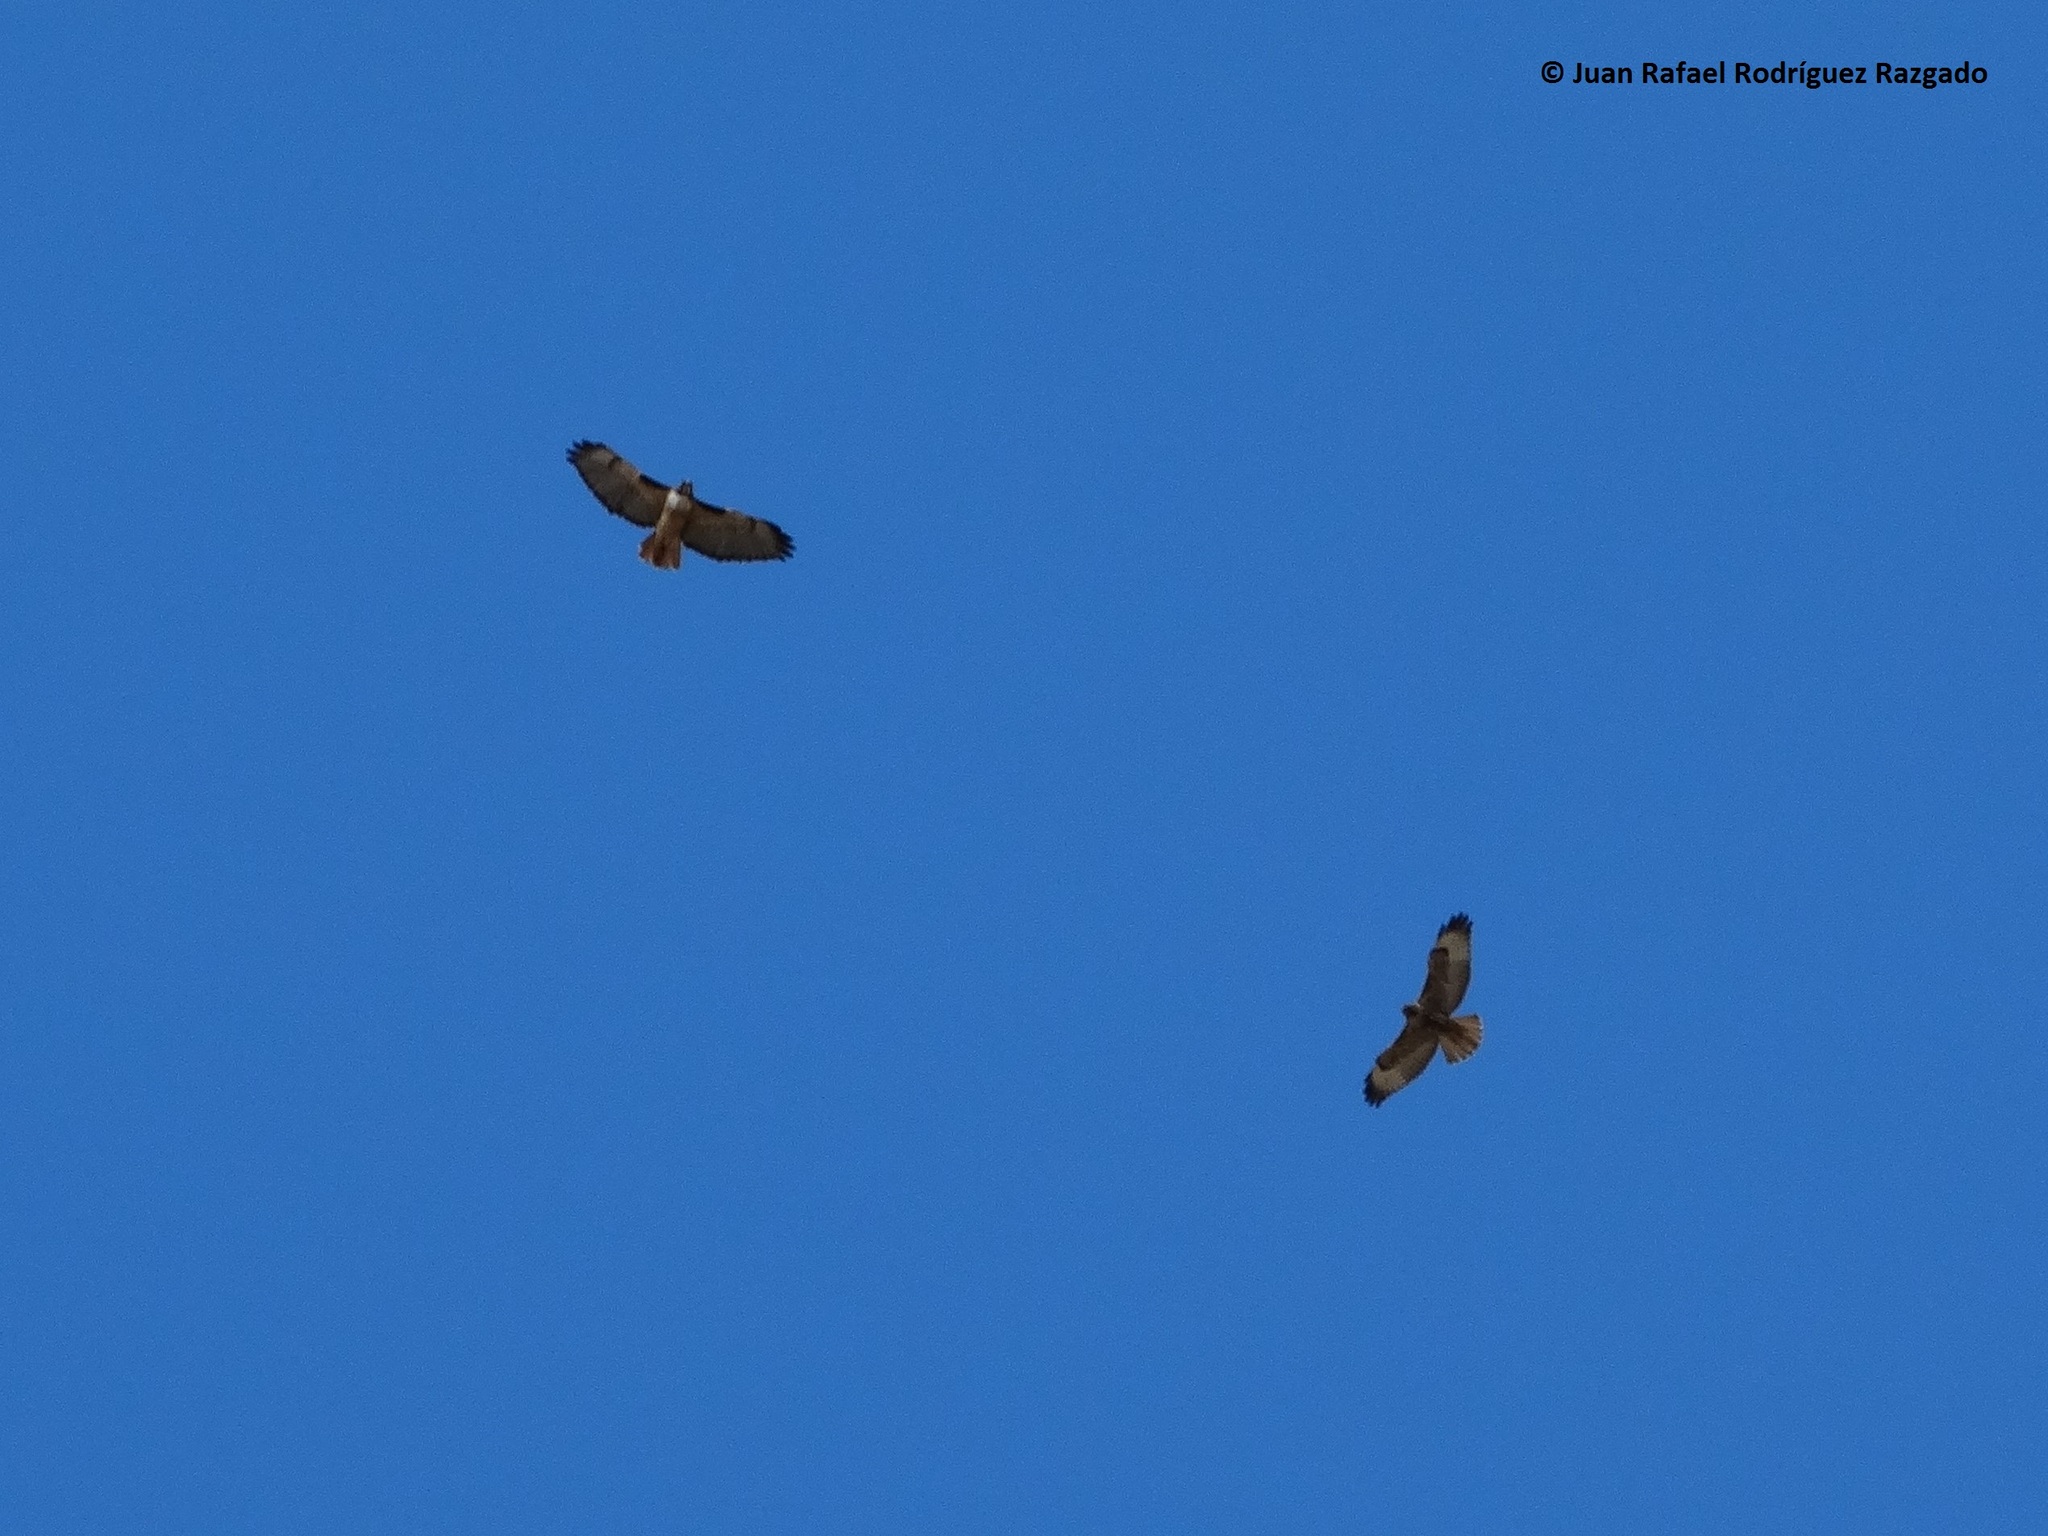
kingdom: Animalia
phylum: Chordata
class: Aves
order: Accipitriformes
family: Accipitridae
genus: Buteo
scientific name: Buteo jamaicensis
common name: Red-tailed hawk
